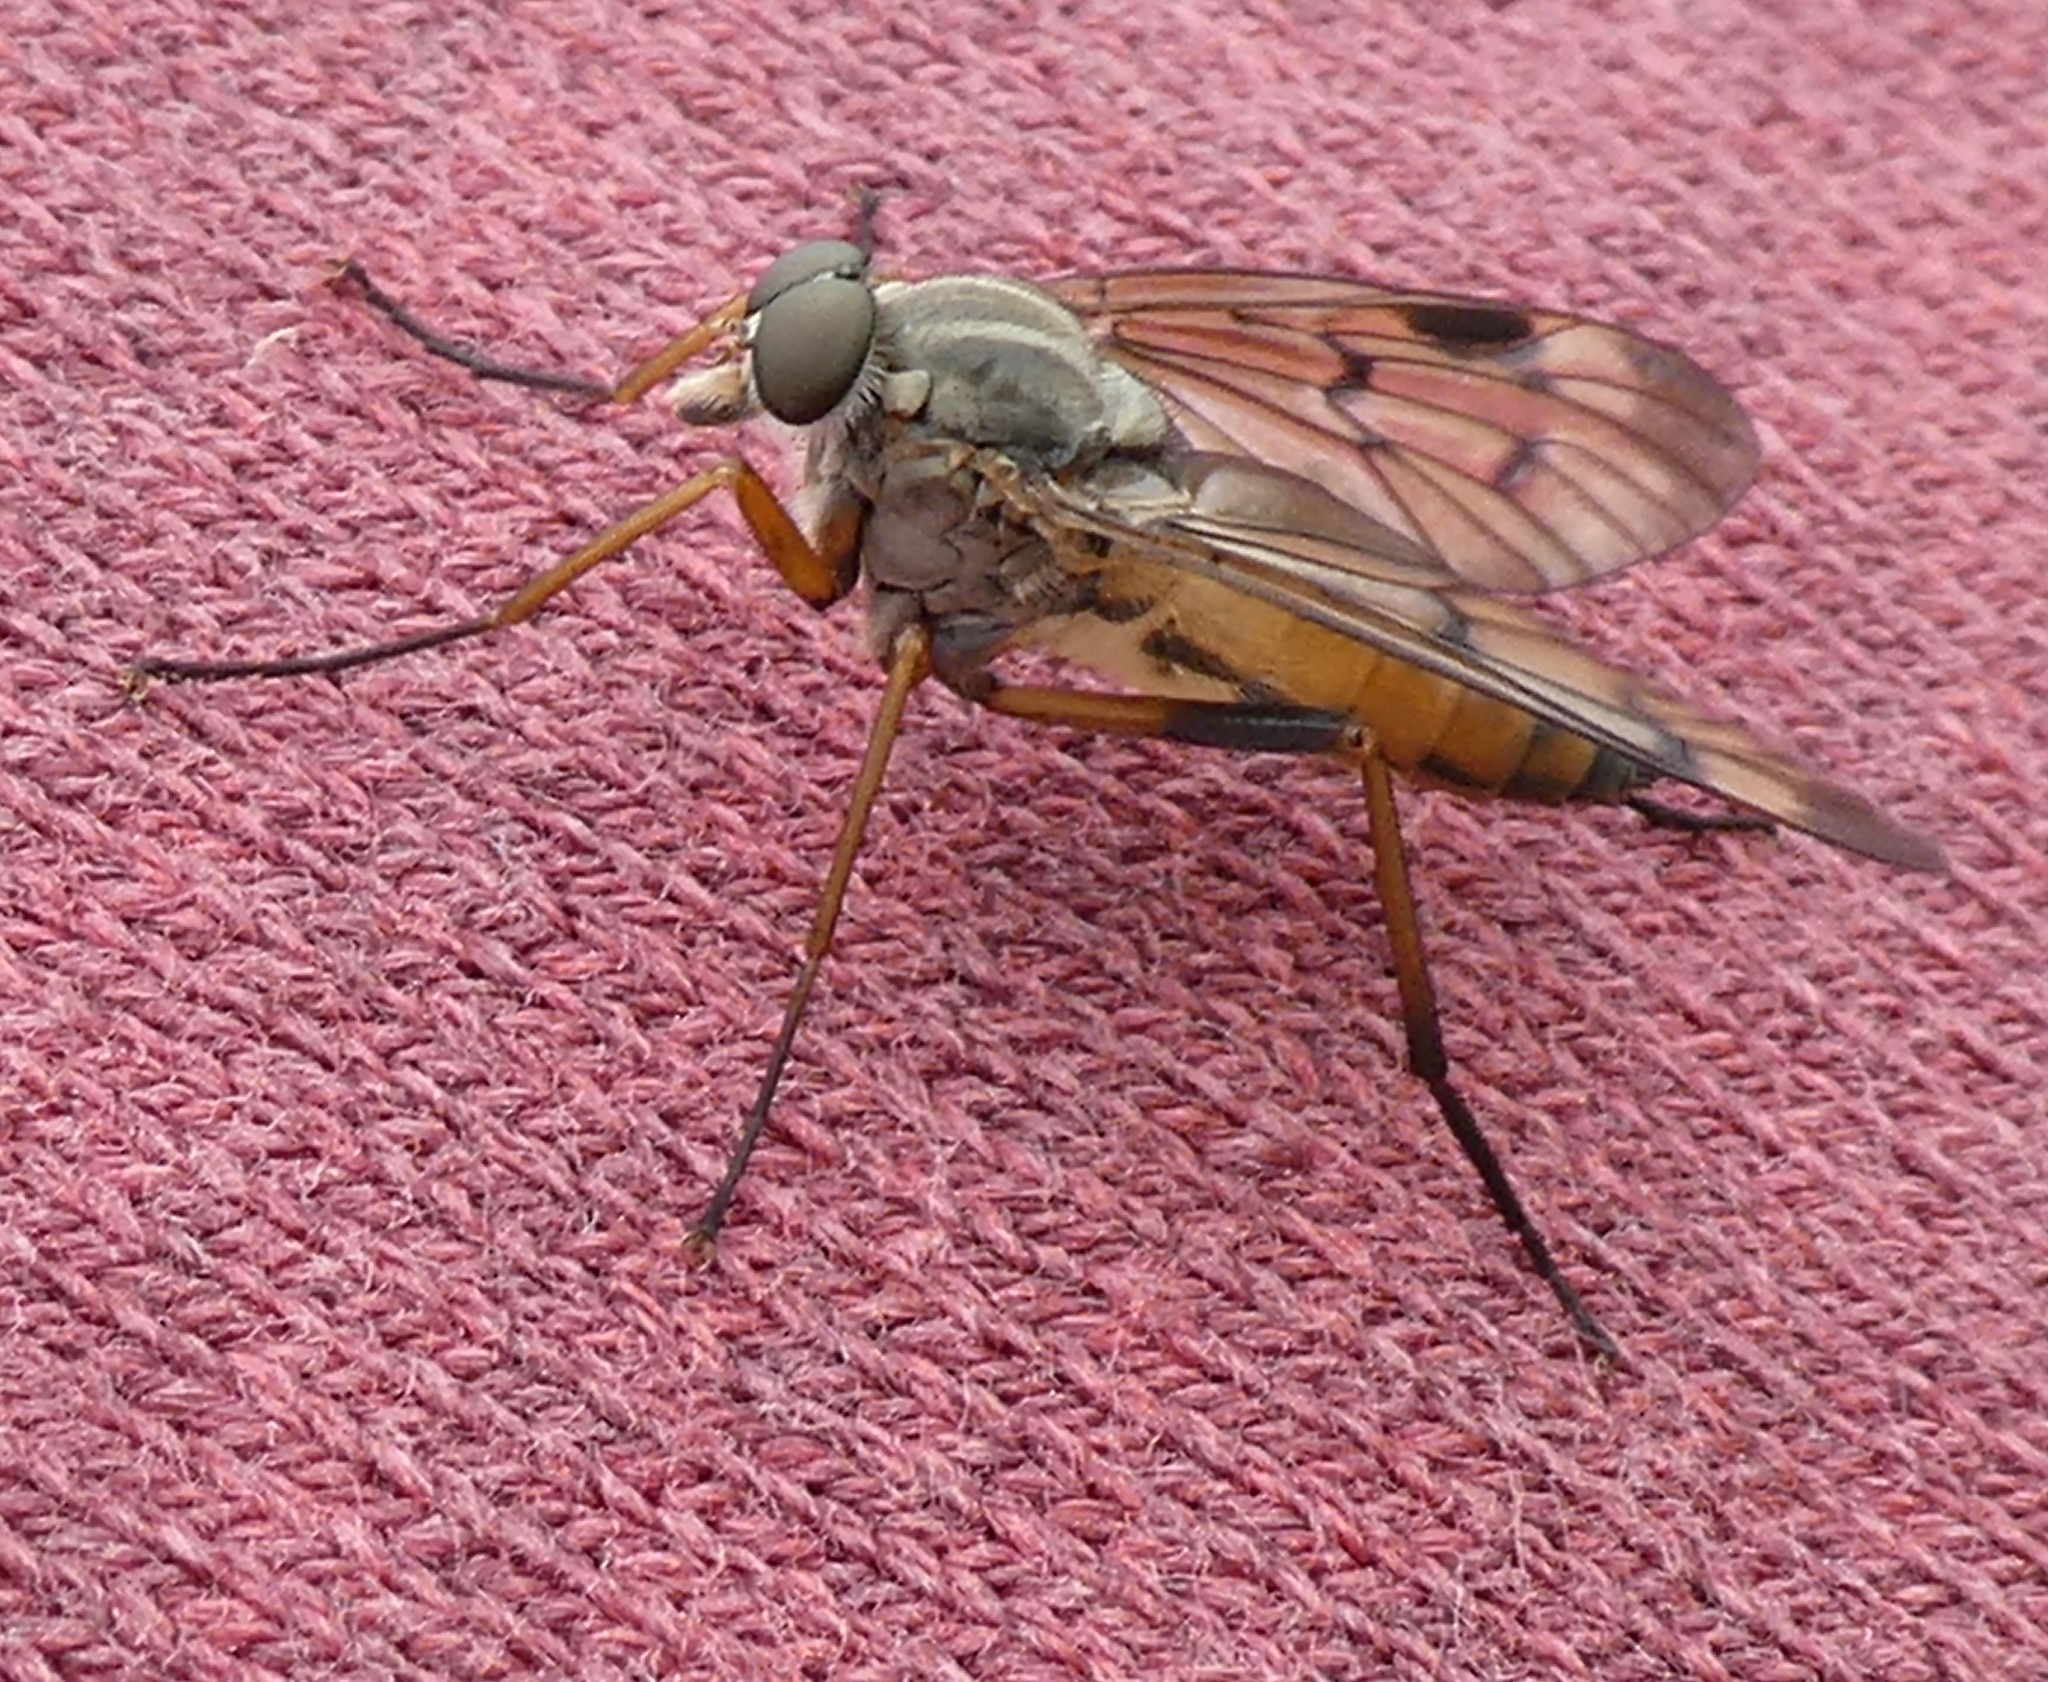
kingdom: Animalia
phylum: Arthropoda
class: Insecta
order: Diptera
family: Rhagionidae
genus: Rhagio
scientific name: Rhagio scolopacea
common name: Downlooker snipefly
